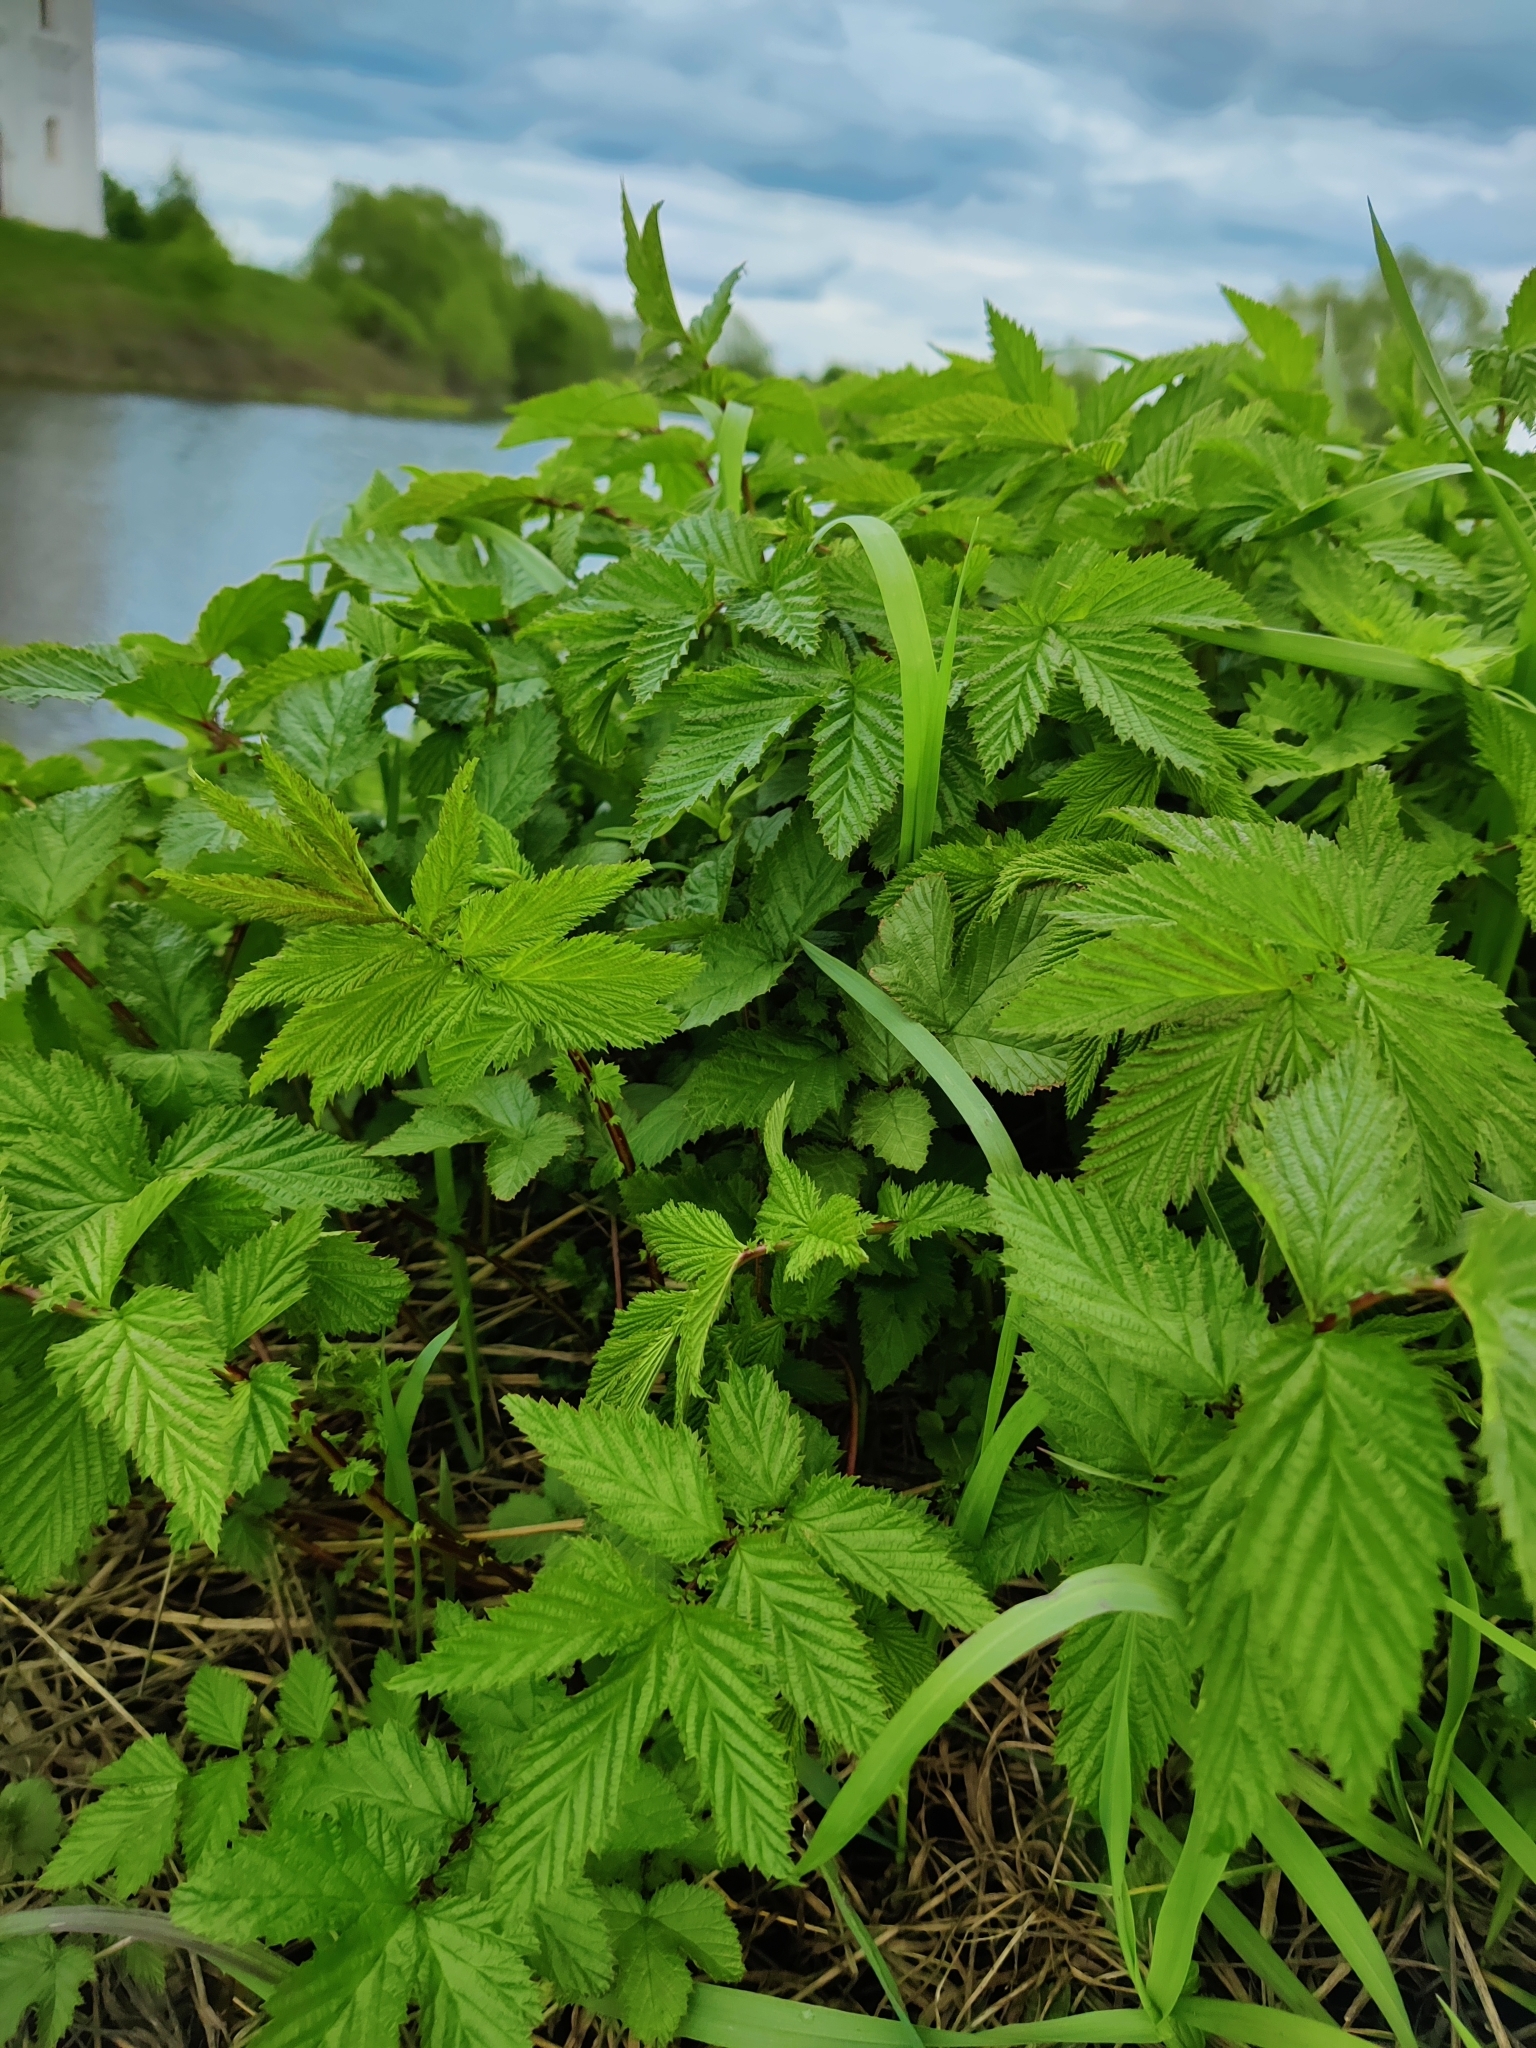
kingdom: Plantae
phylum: Tracheophyta
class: Magnoliopsida
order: Rosales
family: Rosaceae
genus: Filipendula
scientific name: Filipendula ulmaria
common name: Meadowsweet
